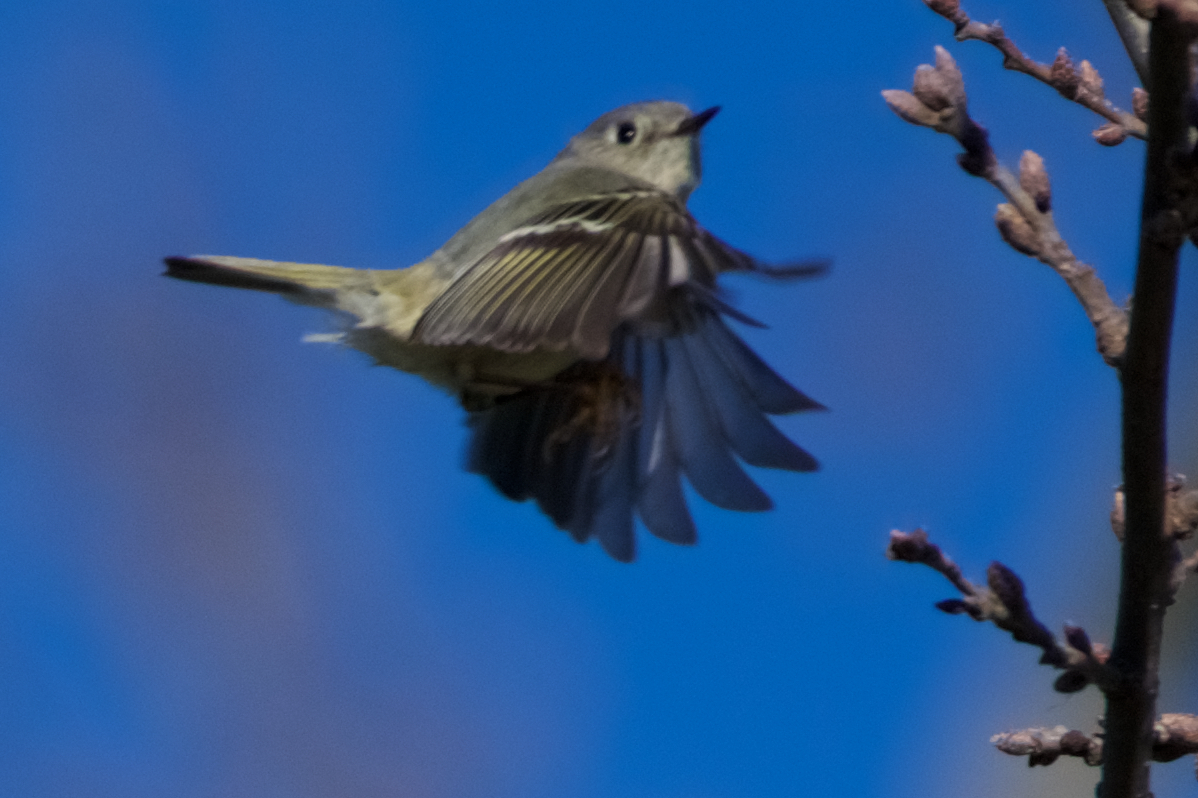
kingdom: Animalia
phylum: Chordata
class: Aves
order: Passeriformes
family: Regulidae
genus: Regulus
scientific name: Regulus calendula
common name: Ruby-crowned kinglet
